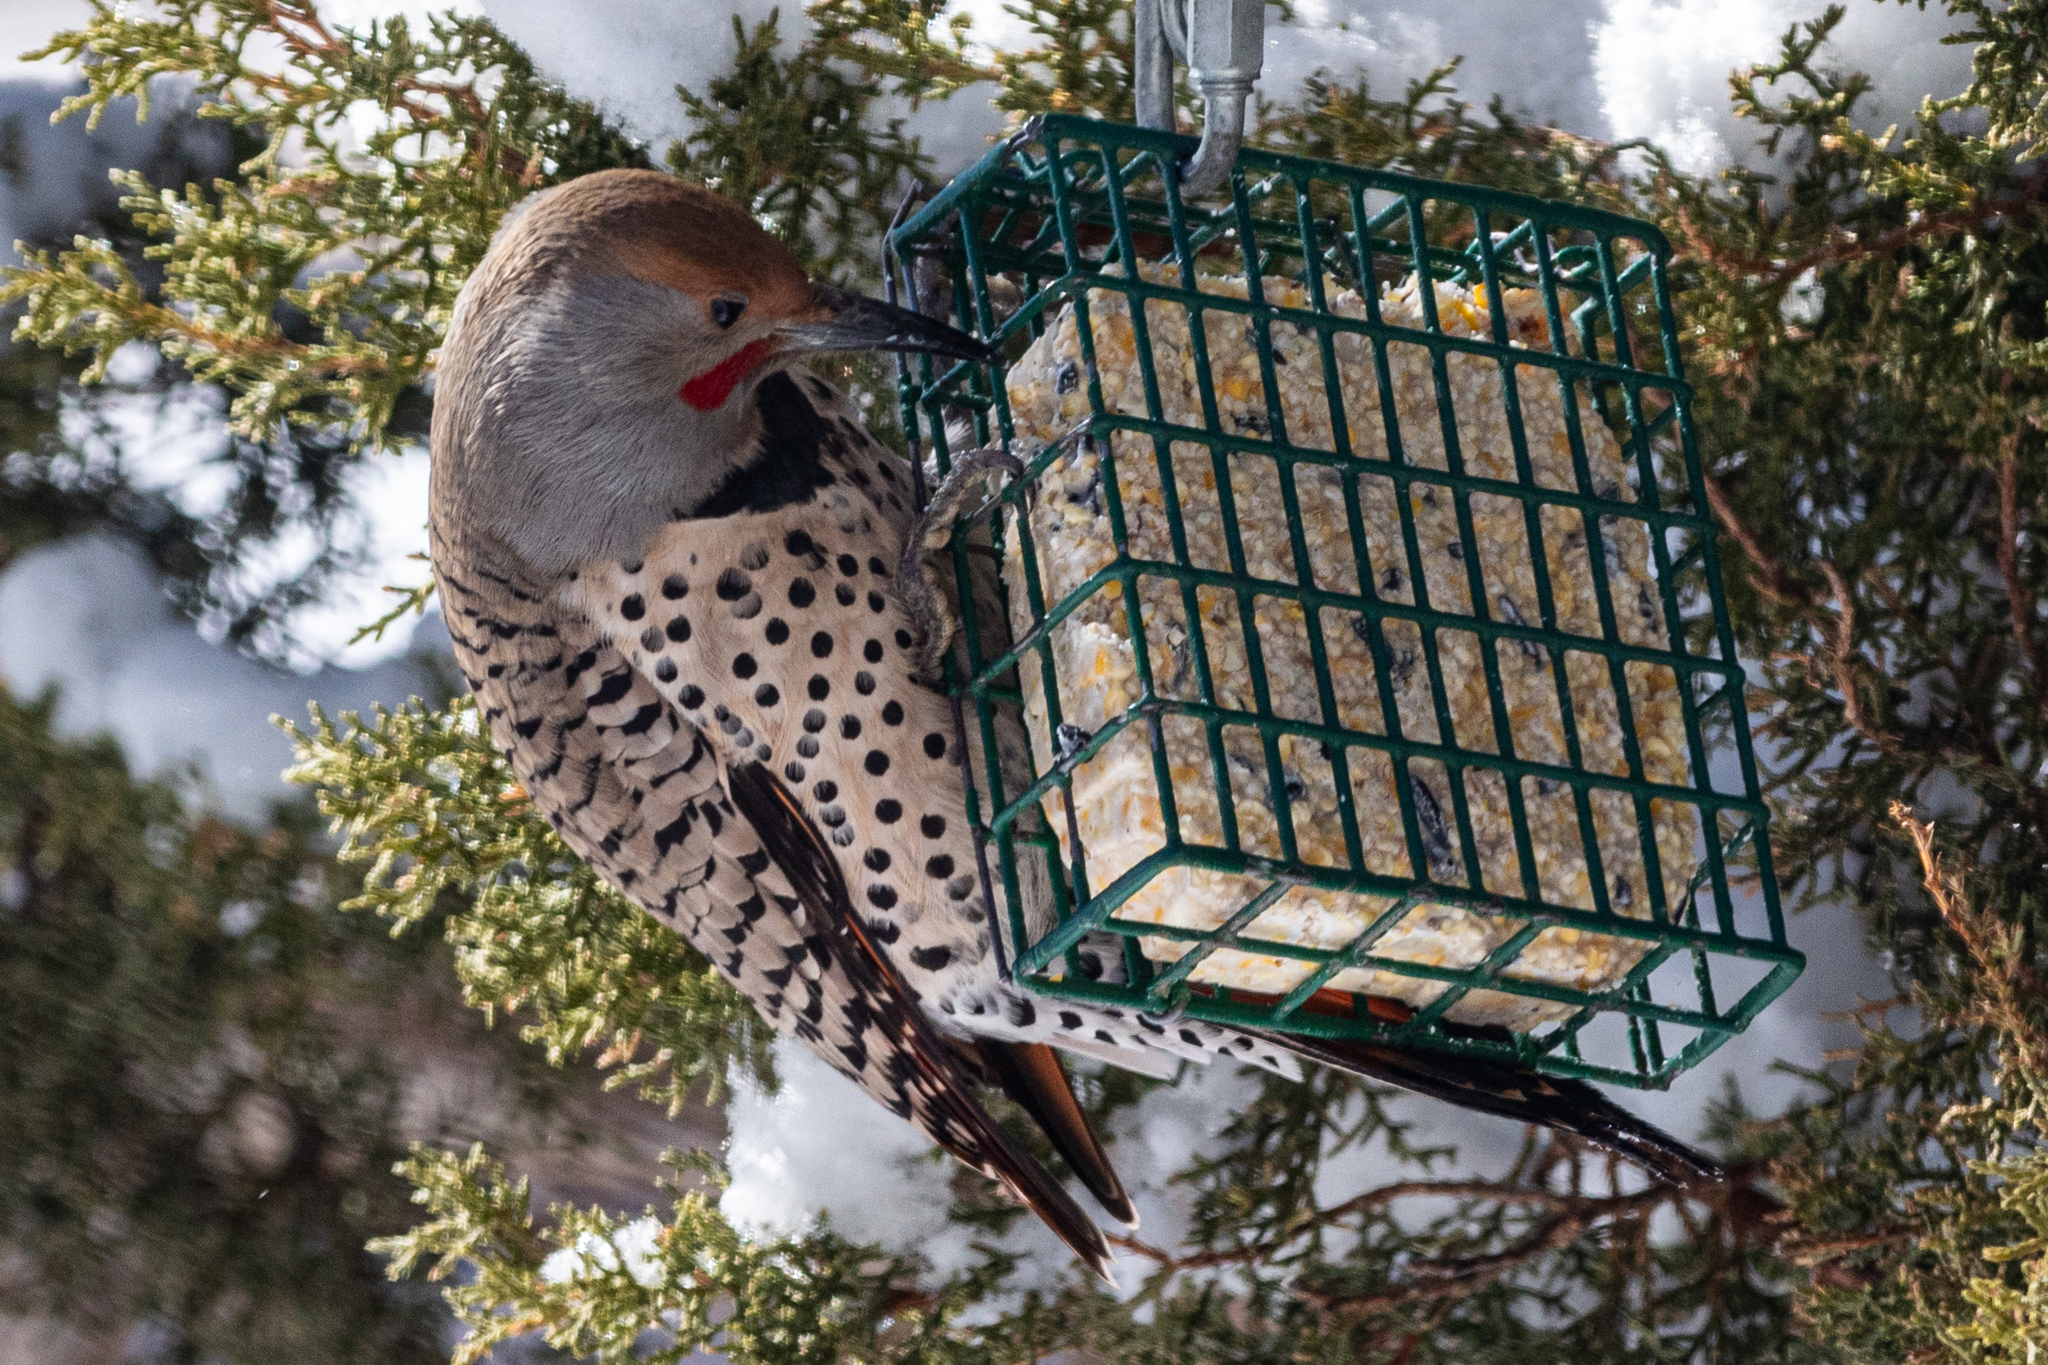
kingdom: Animalia
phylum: Chordata
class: Aves
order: Piciformes
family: Picidae
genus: Colaptes
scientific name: Colaptes auratus
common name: Northern flicker
